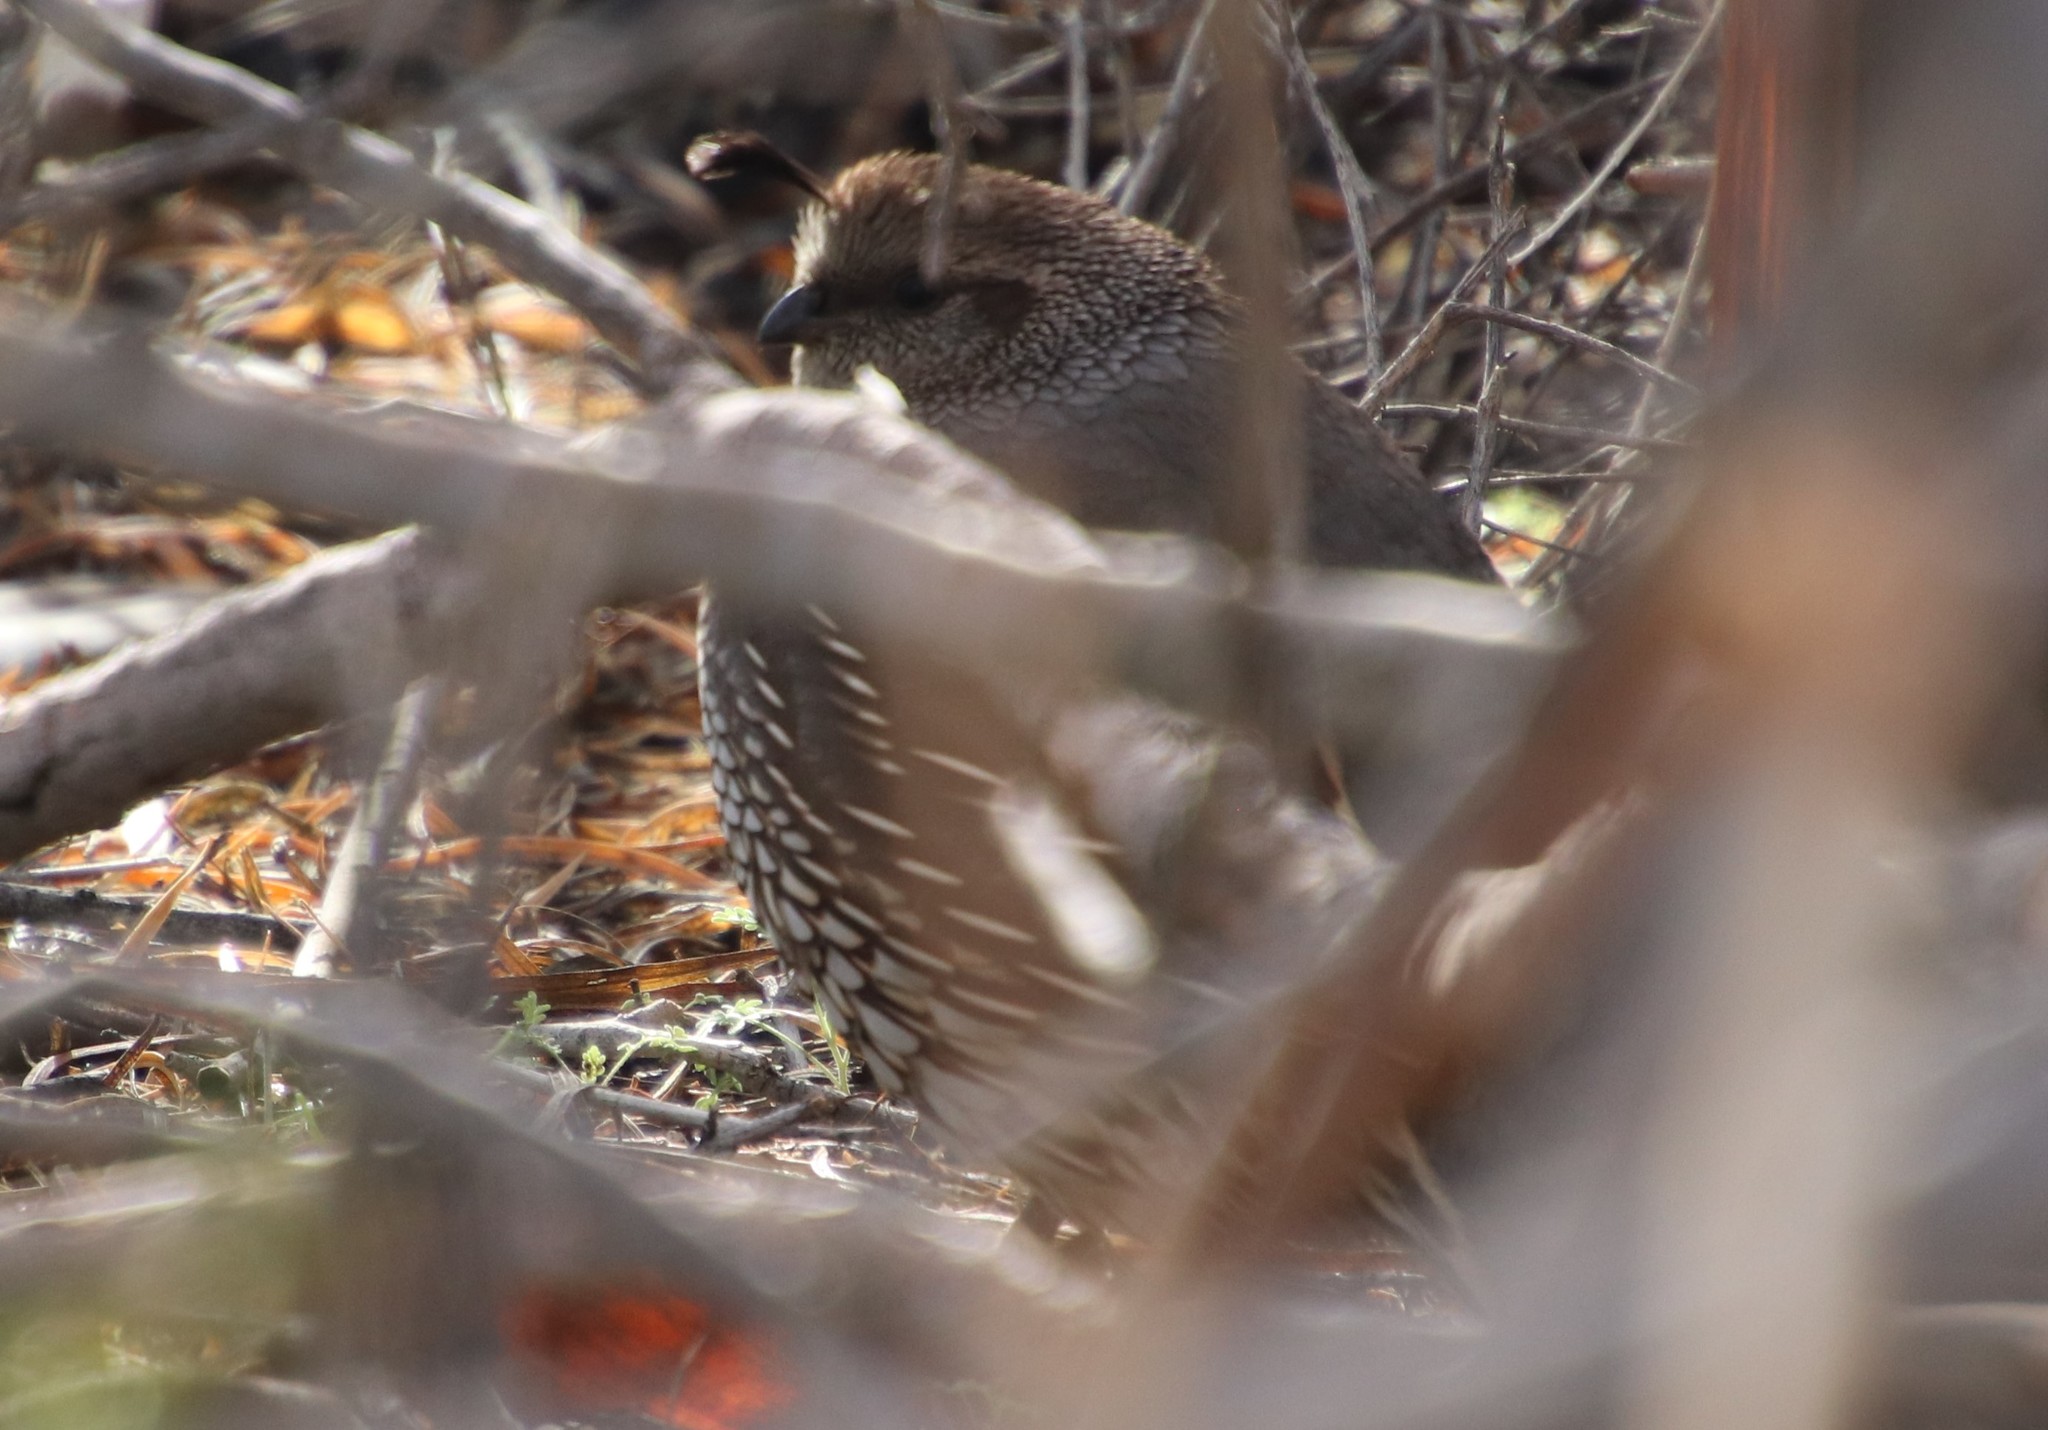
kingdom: Animalia
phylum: Chordata
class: Aves
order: Galliformes
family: Odontophoridae
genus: Callipepla
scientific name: Callipepla californica
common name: California quail
